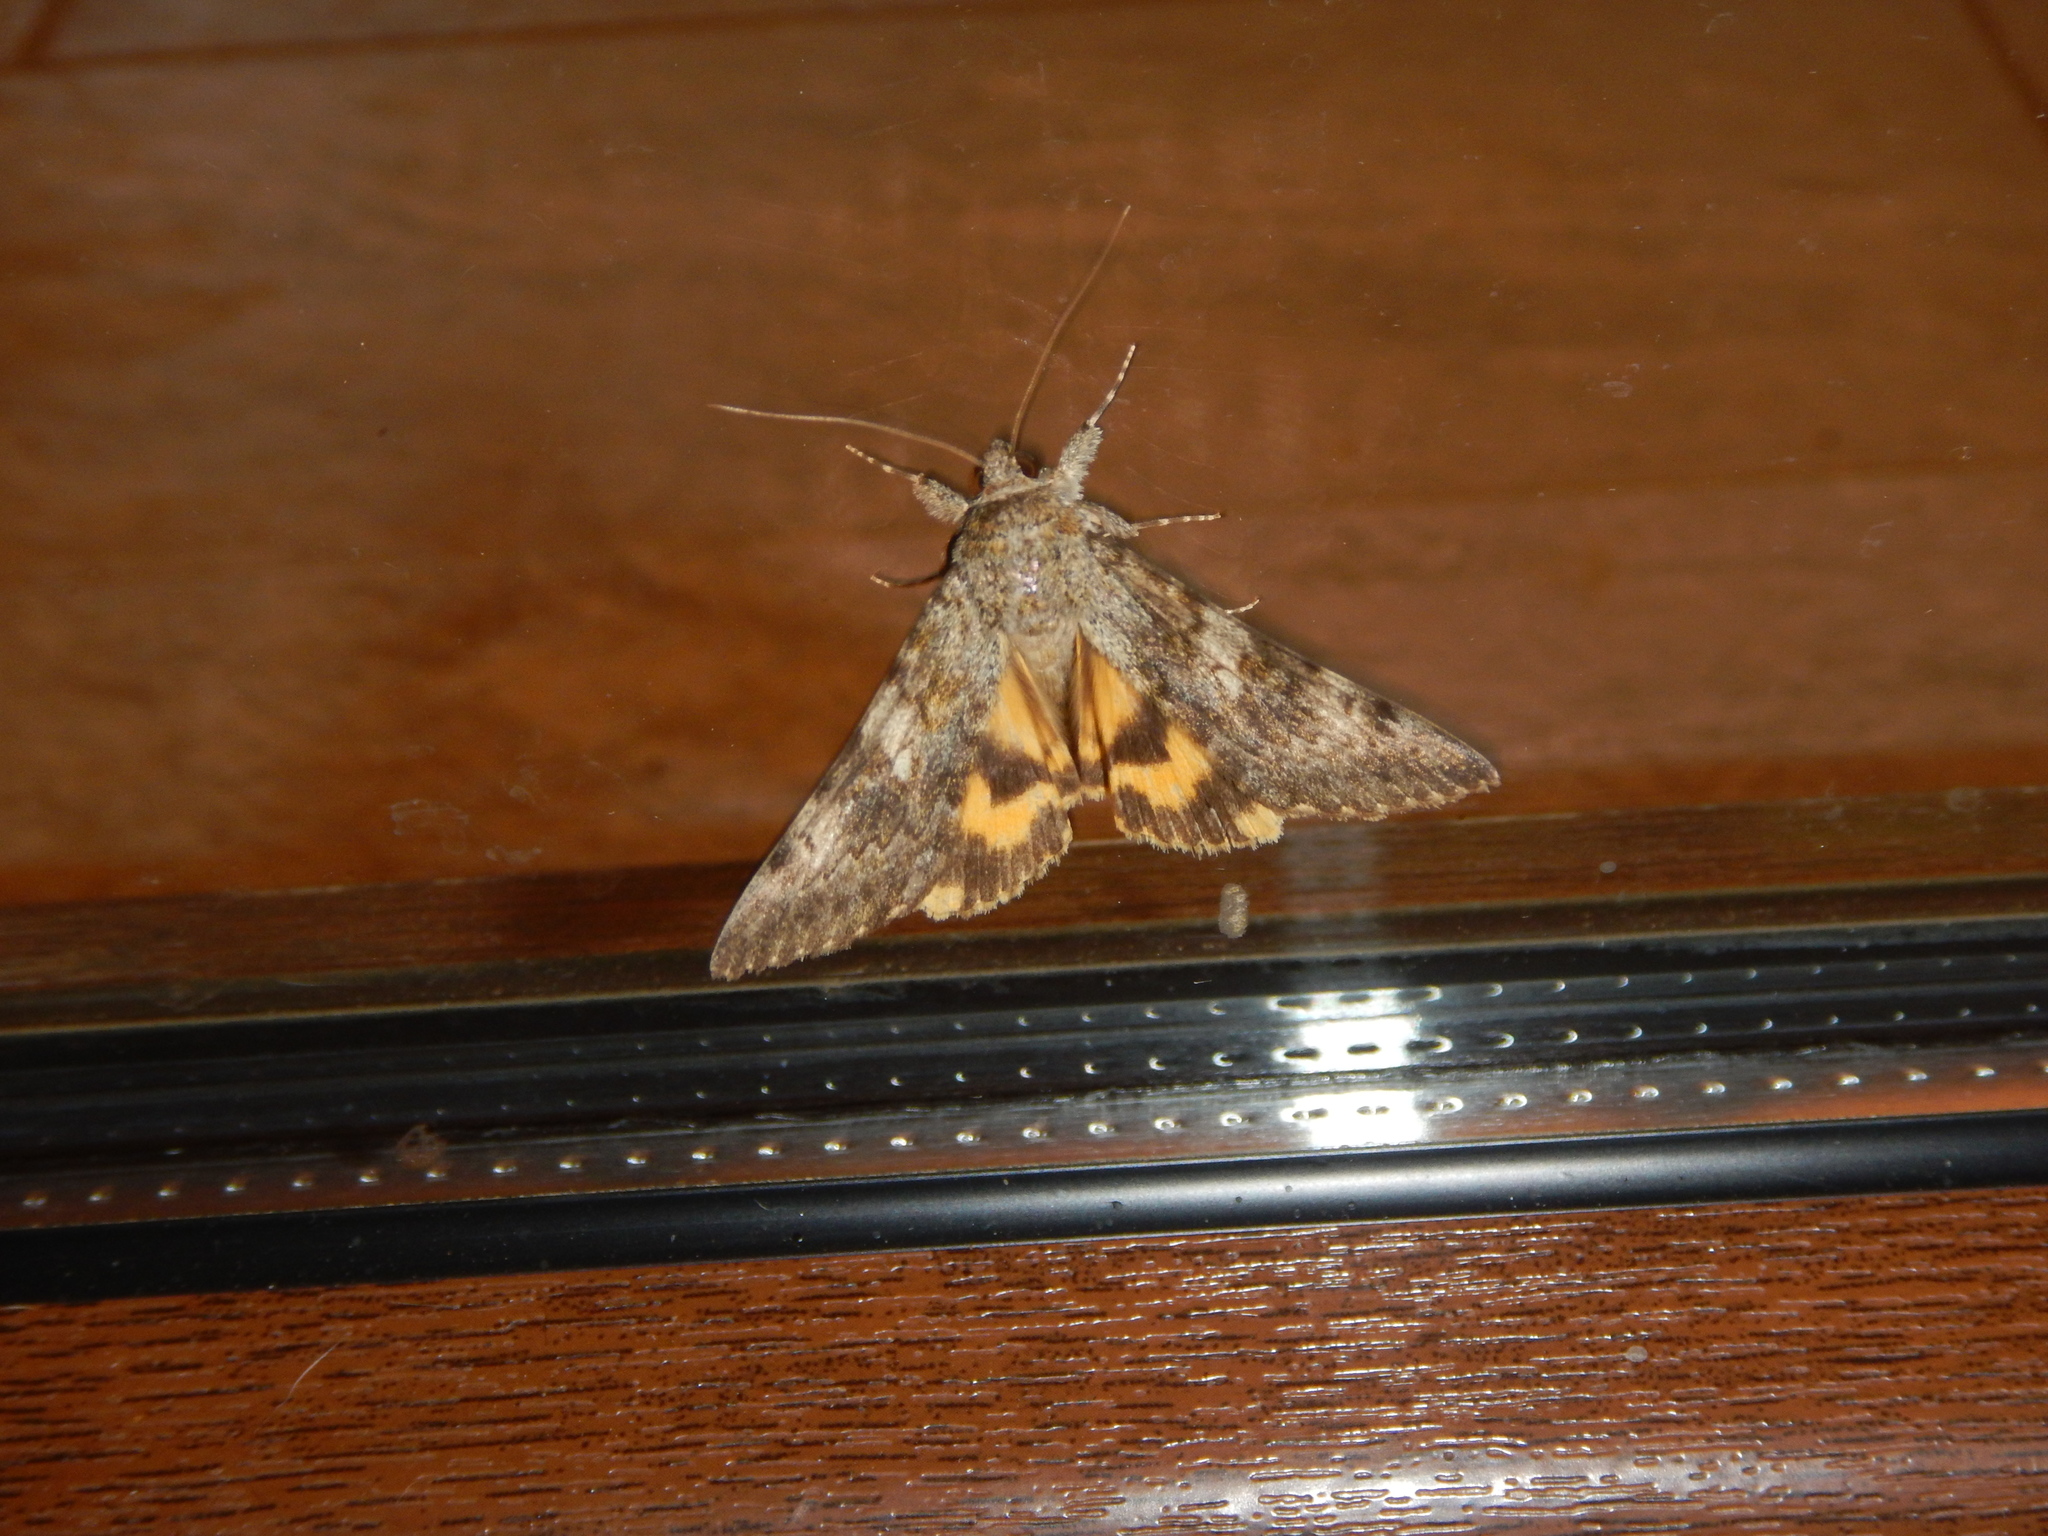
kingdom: Animalia
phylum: Arthropoda
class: Insecta
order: Lepidoptera
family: Erebidae
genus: Catocala
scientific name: Catocala nymphaea
